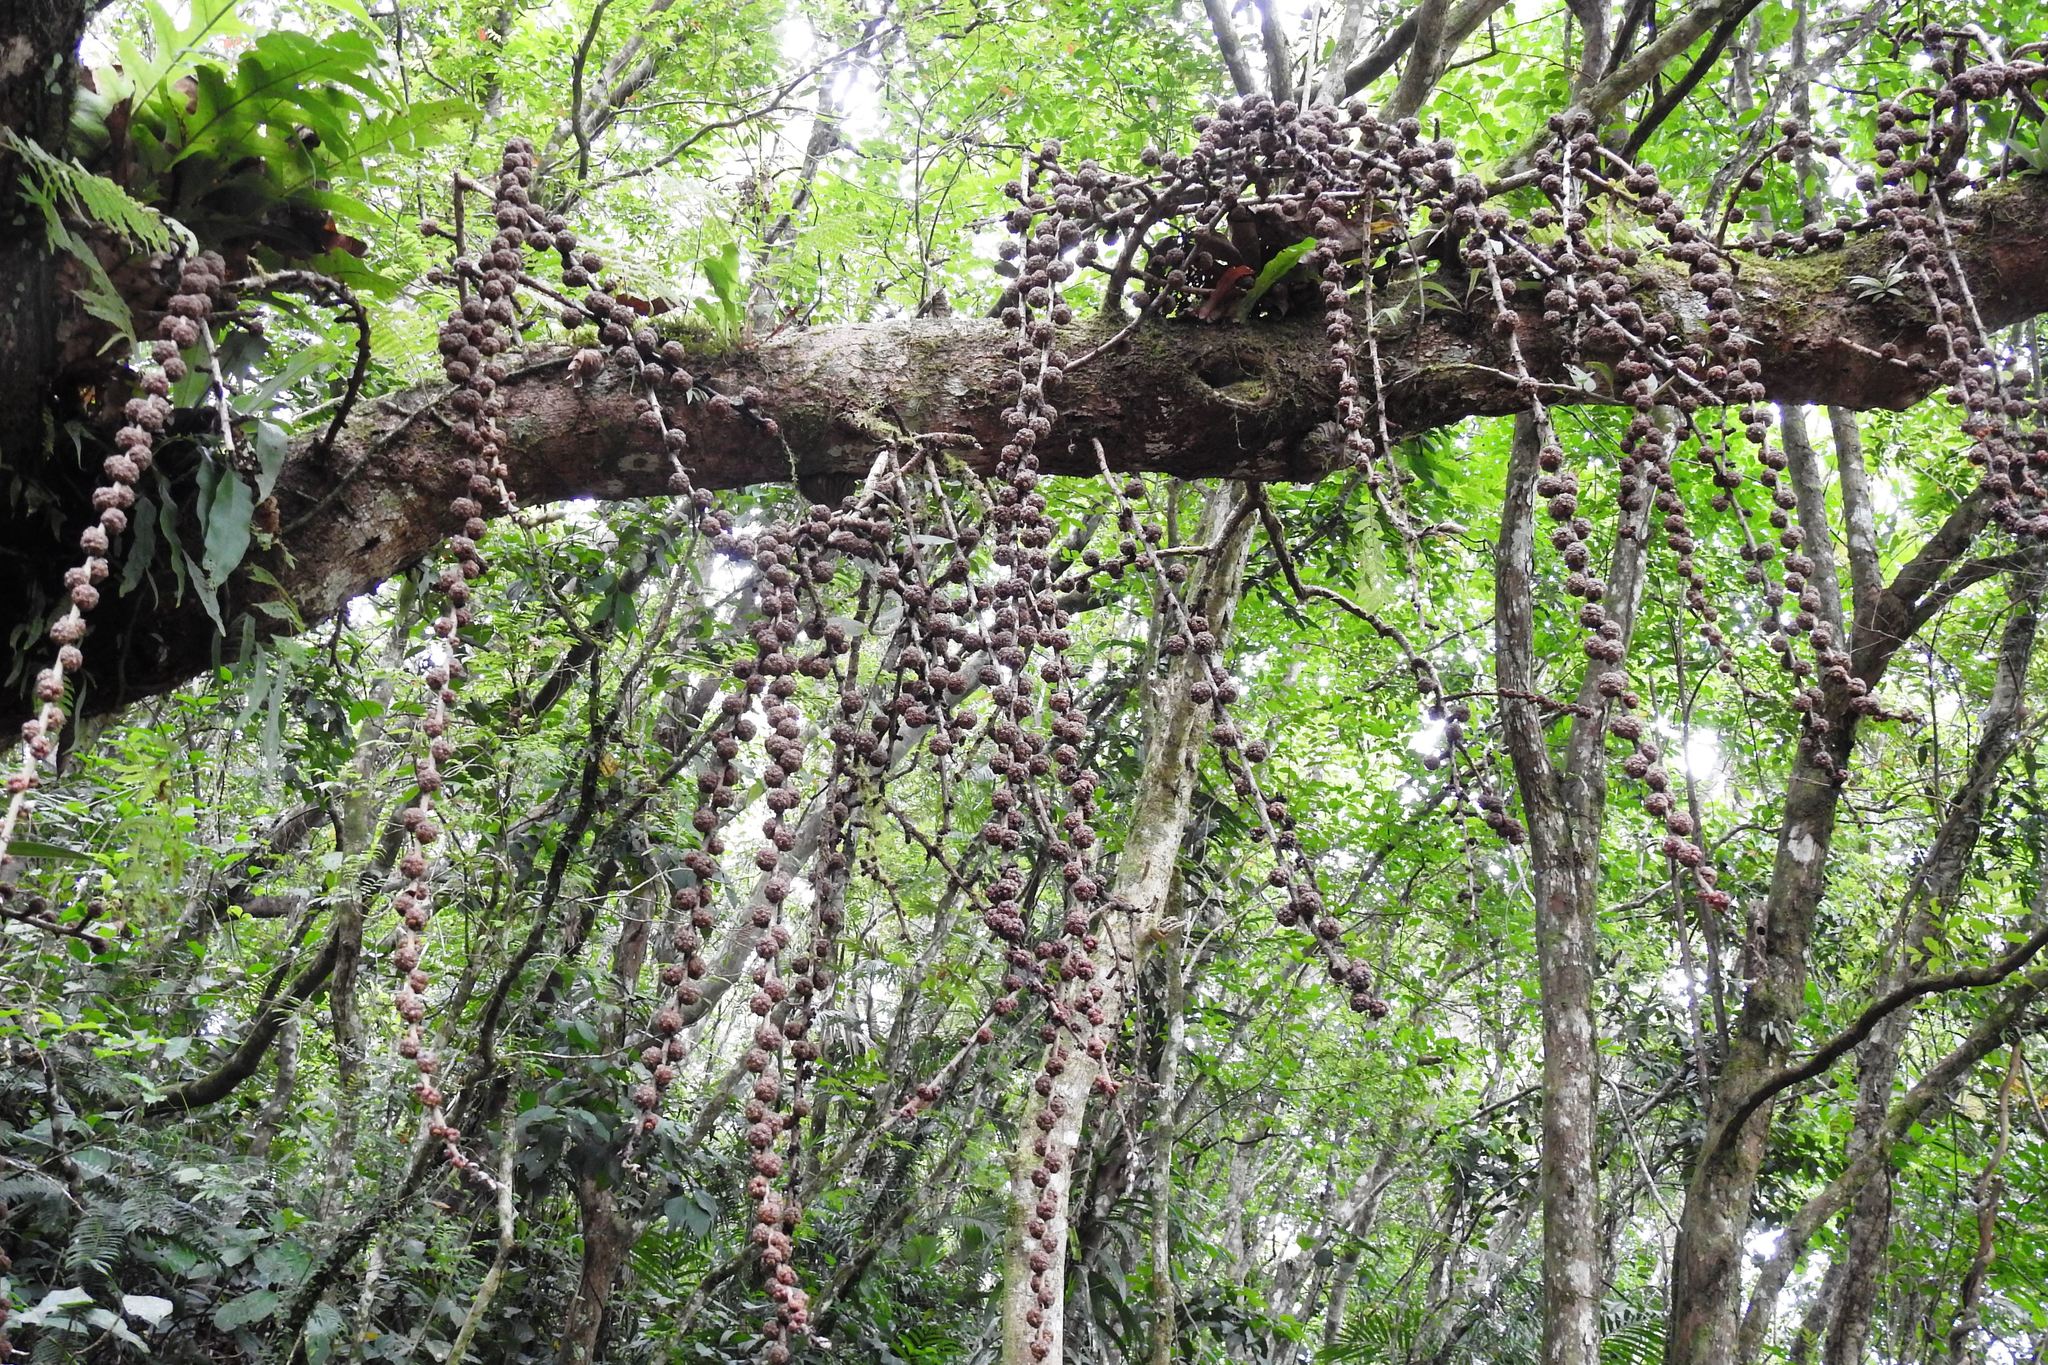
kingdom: Plantae
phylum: Tracheophyta
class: Magnoliopsida
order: Rosales
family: Moraceae
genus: Ficus
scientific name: Ficus minahassae
